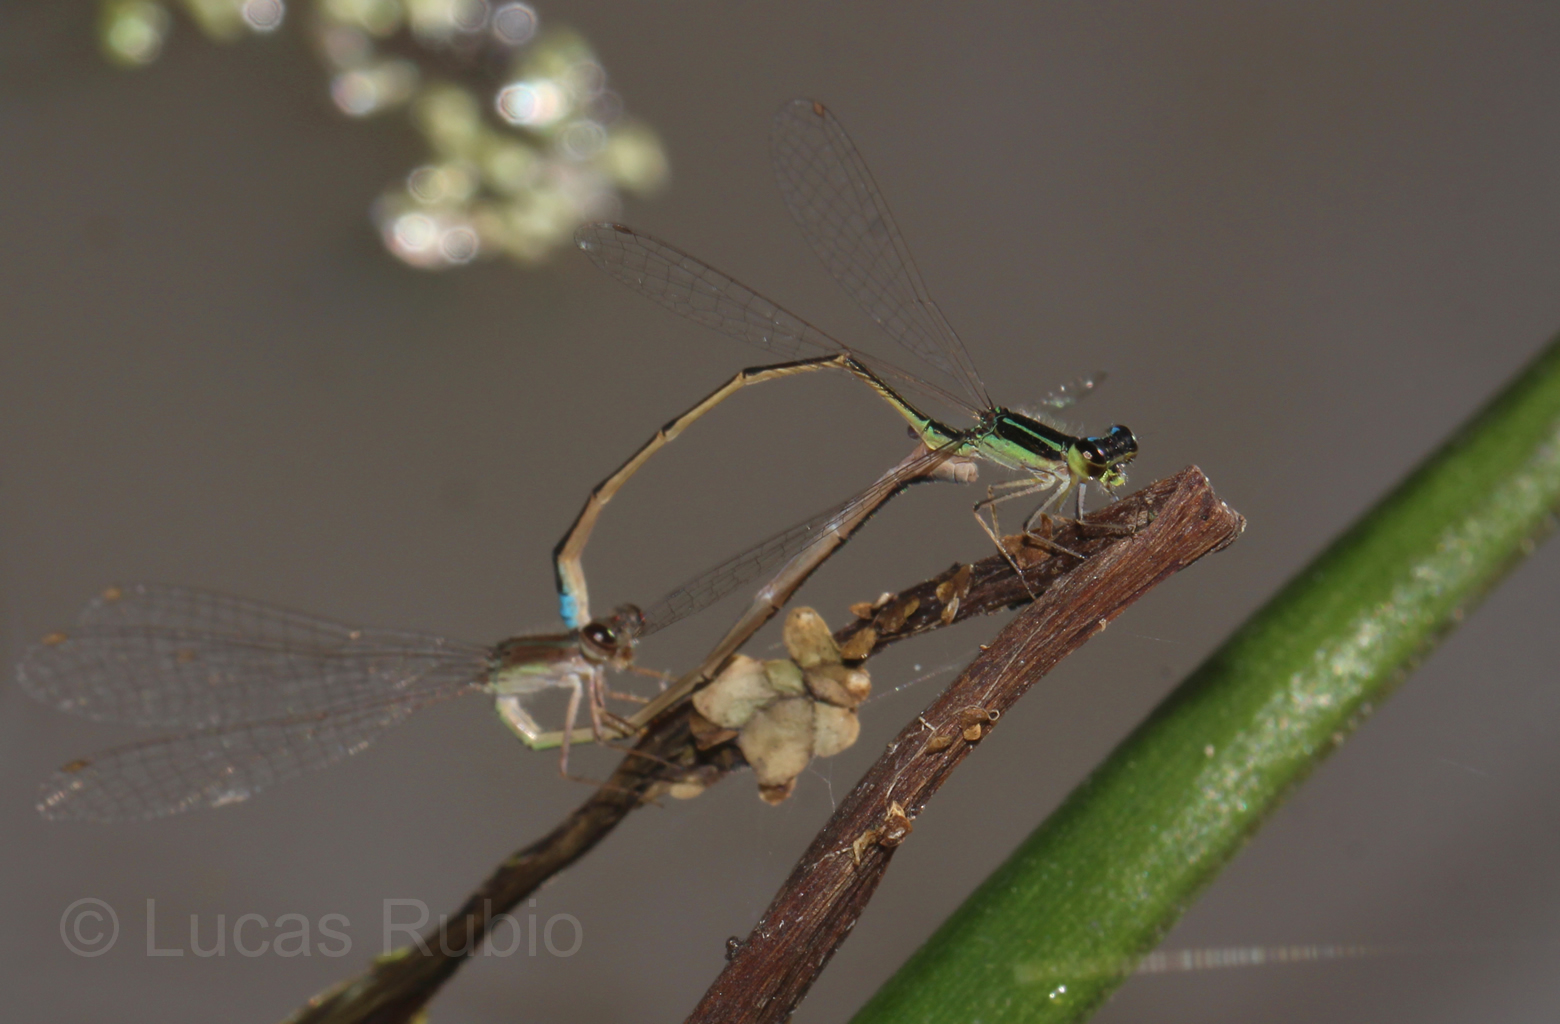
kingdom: Animalia
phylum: Arthropoda
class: Insecta
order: Odonata
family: Coenagrionidae
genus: Argentagrion
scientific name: Argentagrion ambiguum
